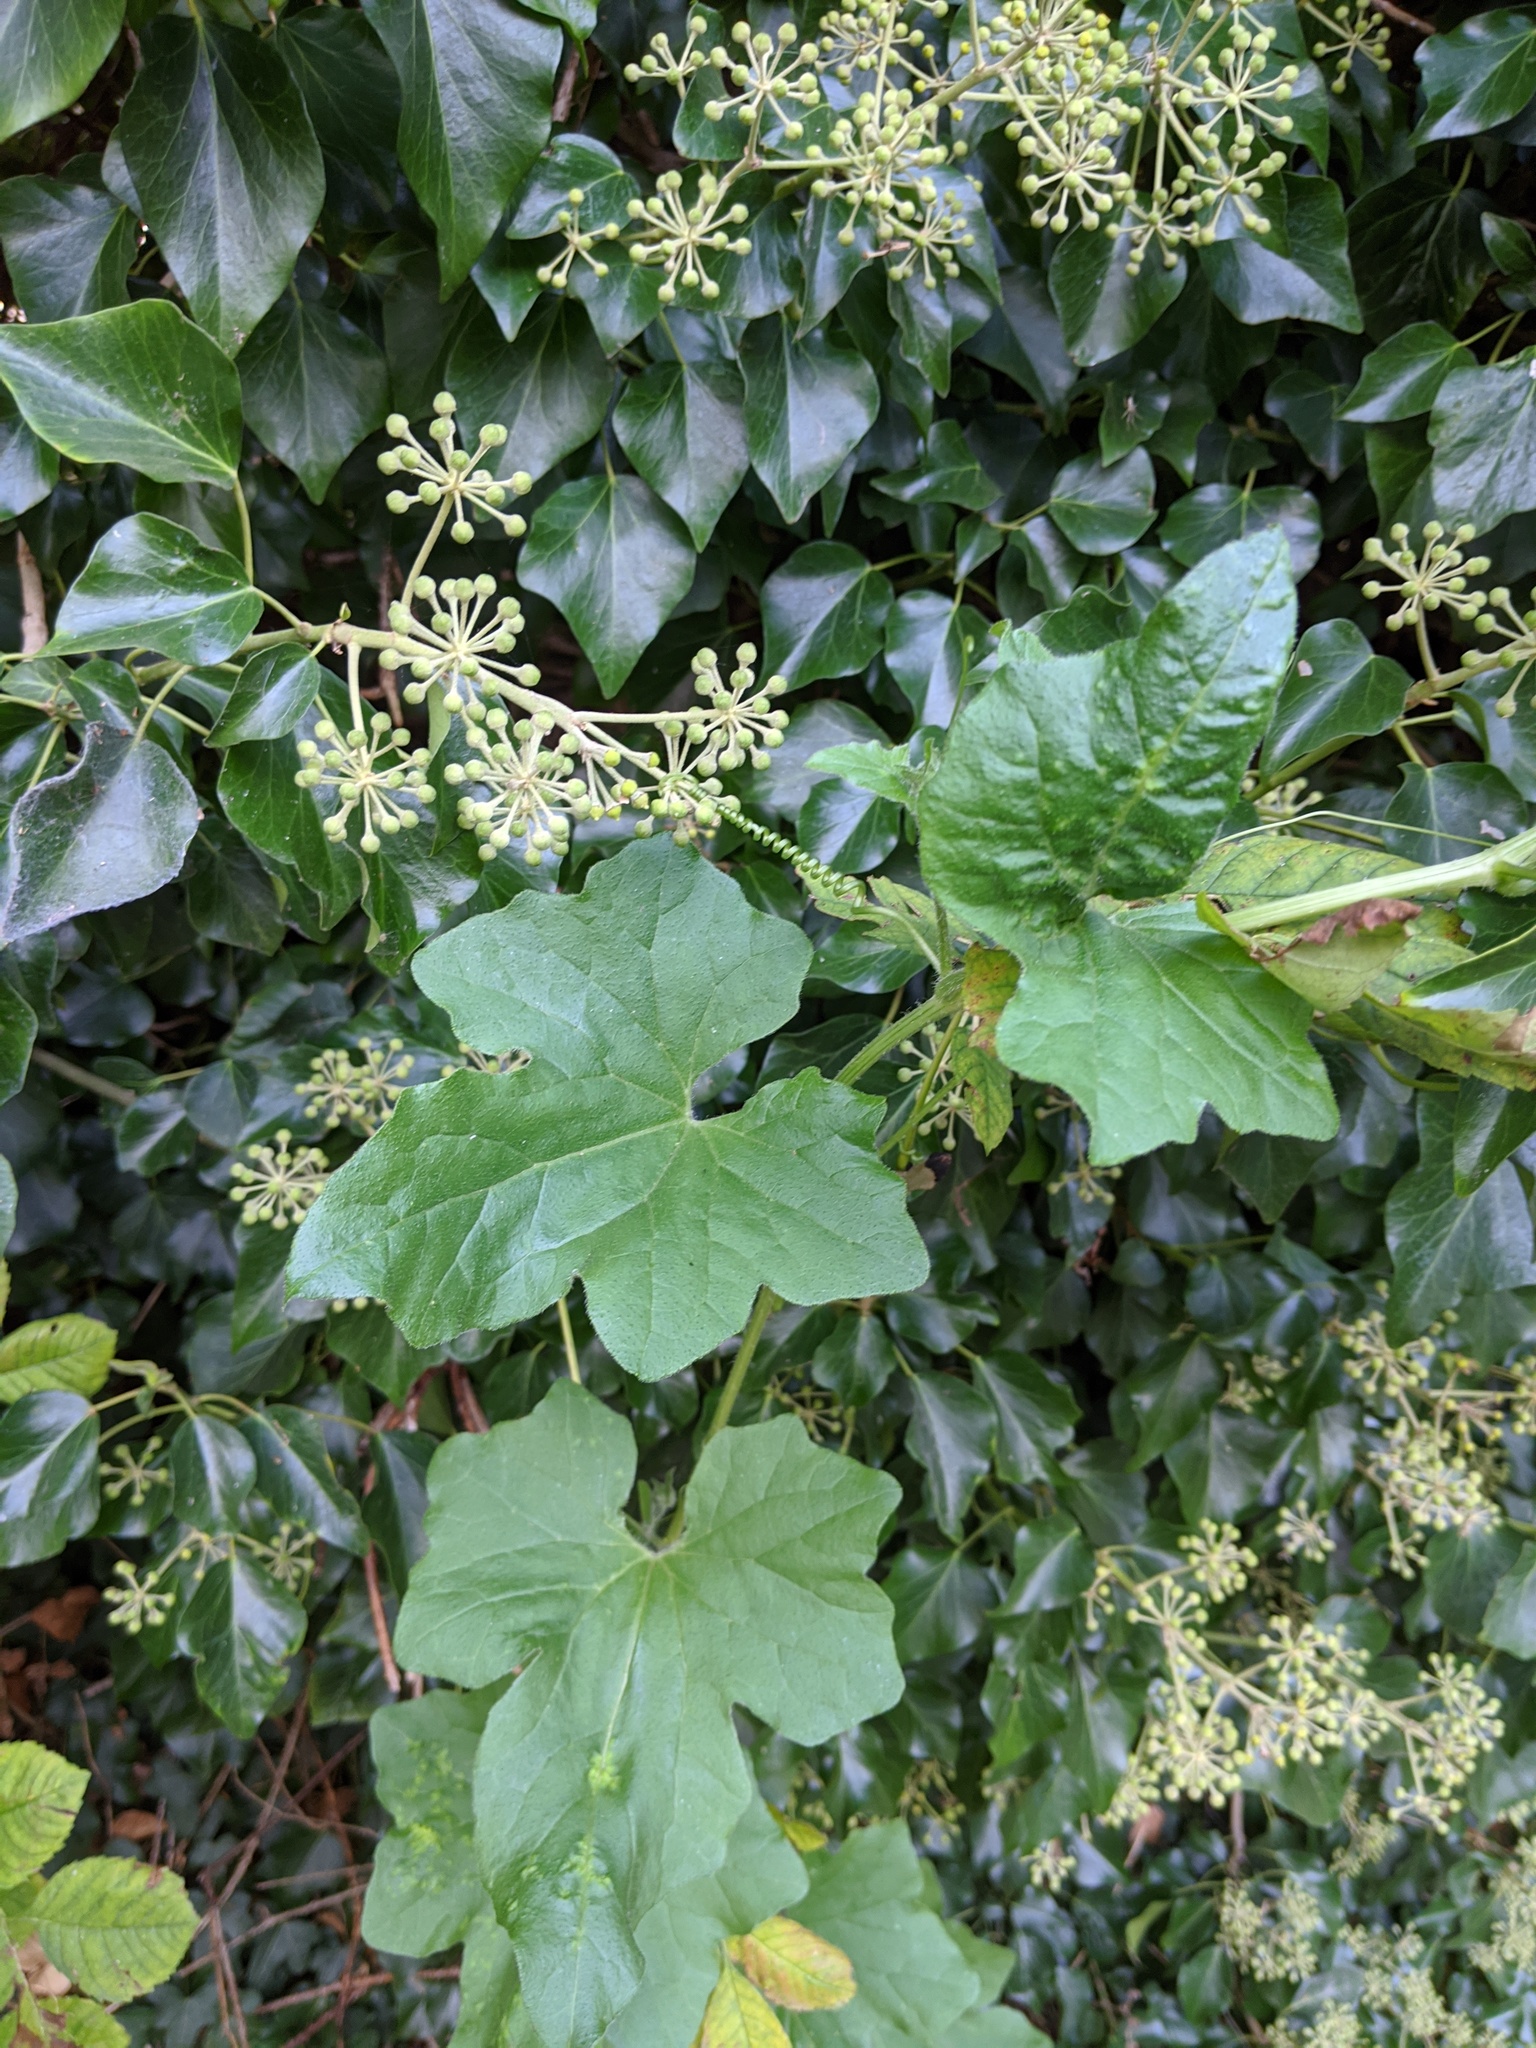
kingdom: Plantae
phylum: Tracheophyta
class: Magnoliopsida
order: Cucurbitales
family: Cucurbitaceae
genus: Bryonia
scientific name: Bryonia cretica
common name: Cretan bryony
